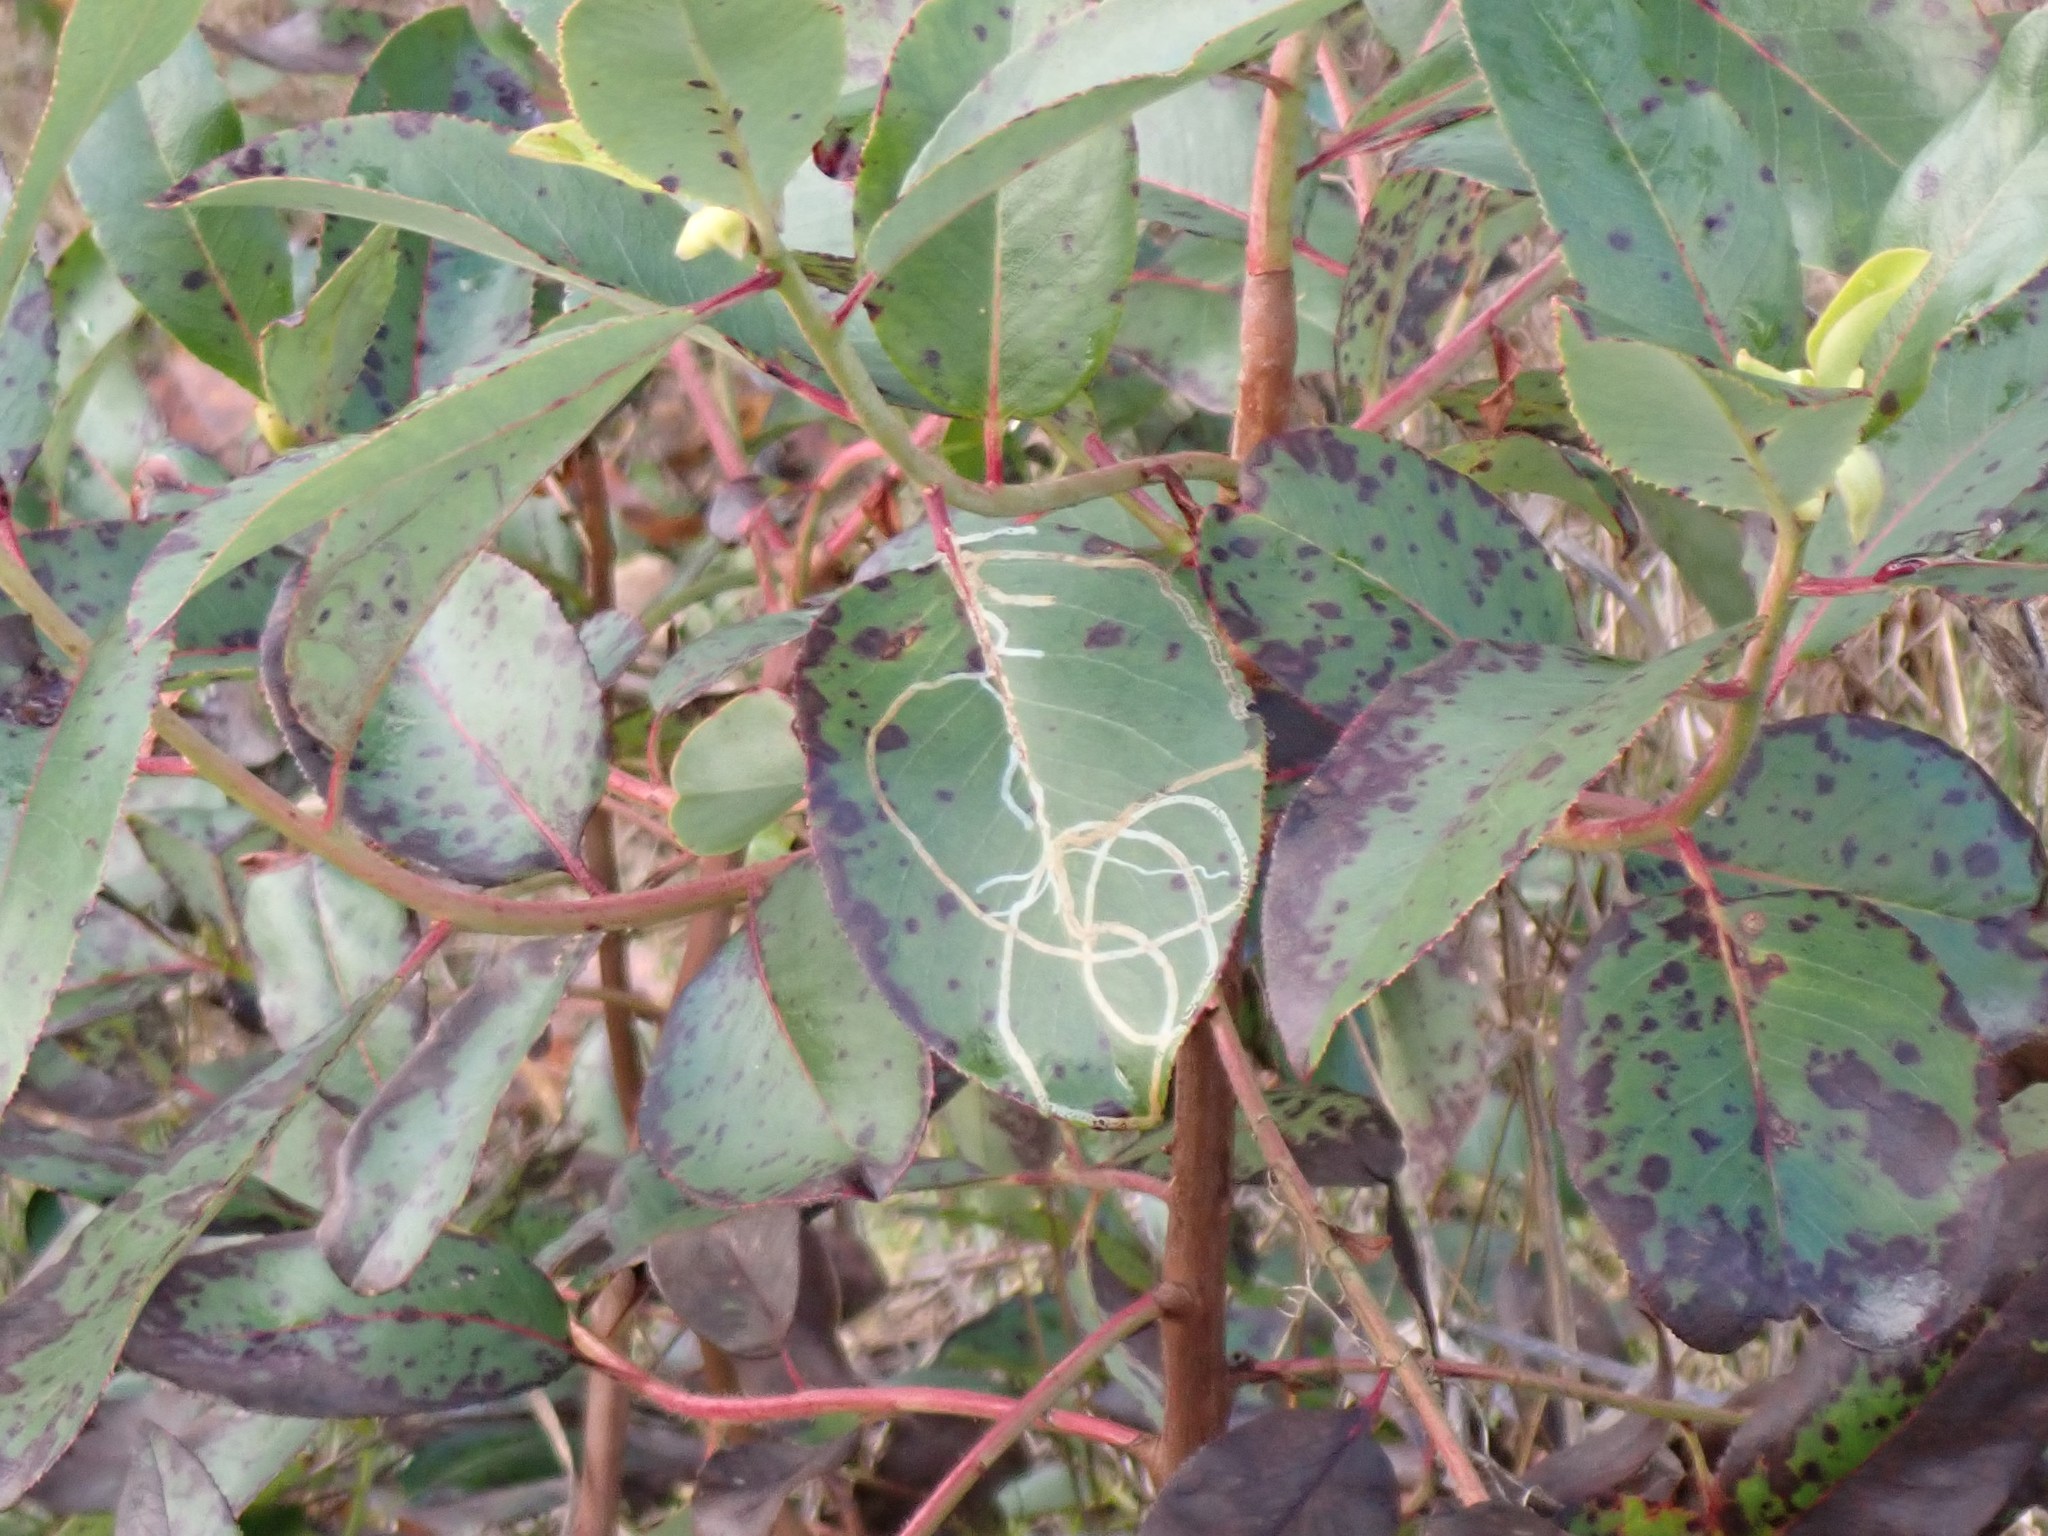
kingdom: Animalia
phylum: Arthropoda
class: Insecta
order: Lepidoptera
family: Gracillariidae
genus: Marmara
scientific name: Marmara arbutiella
